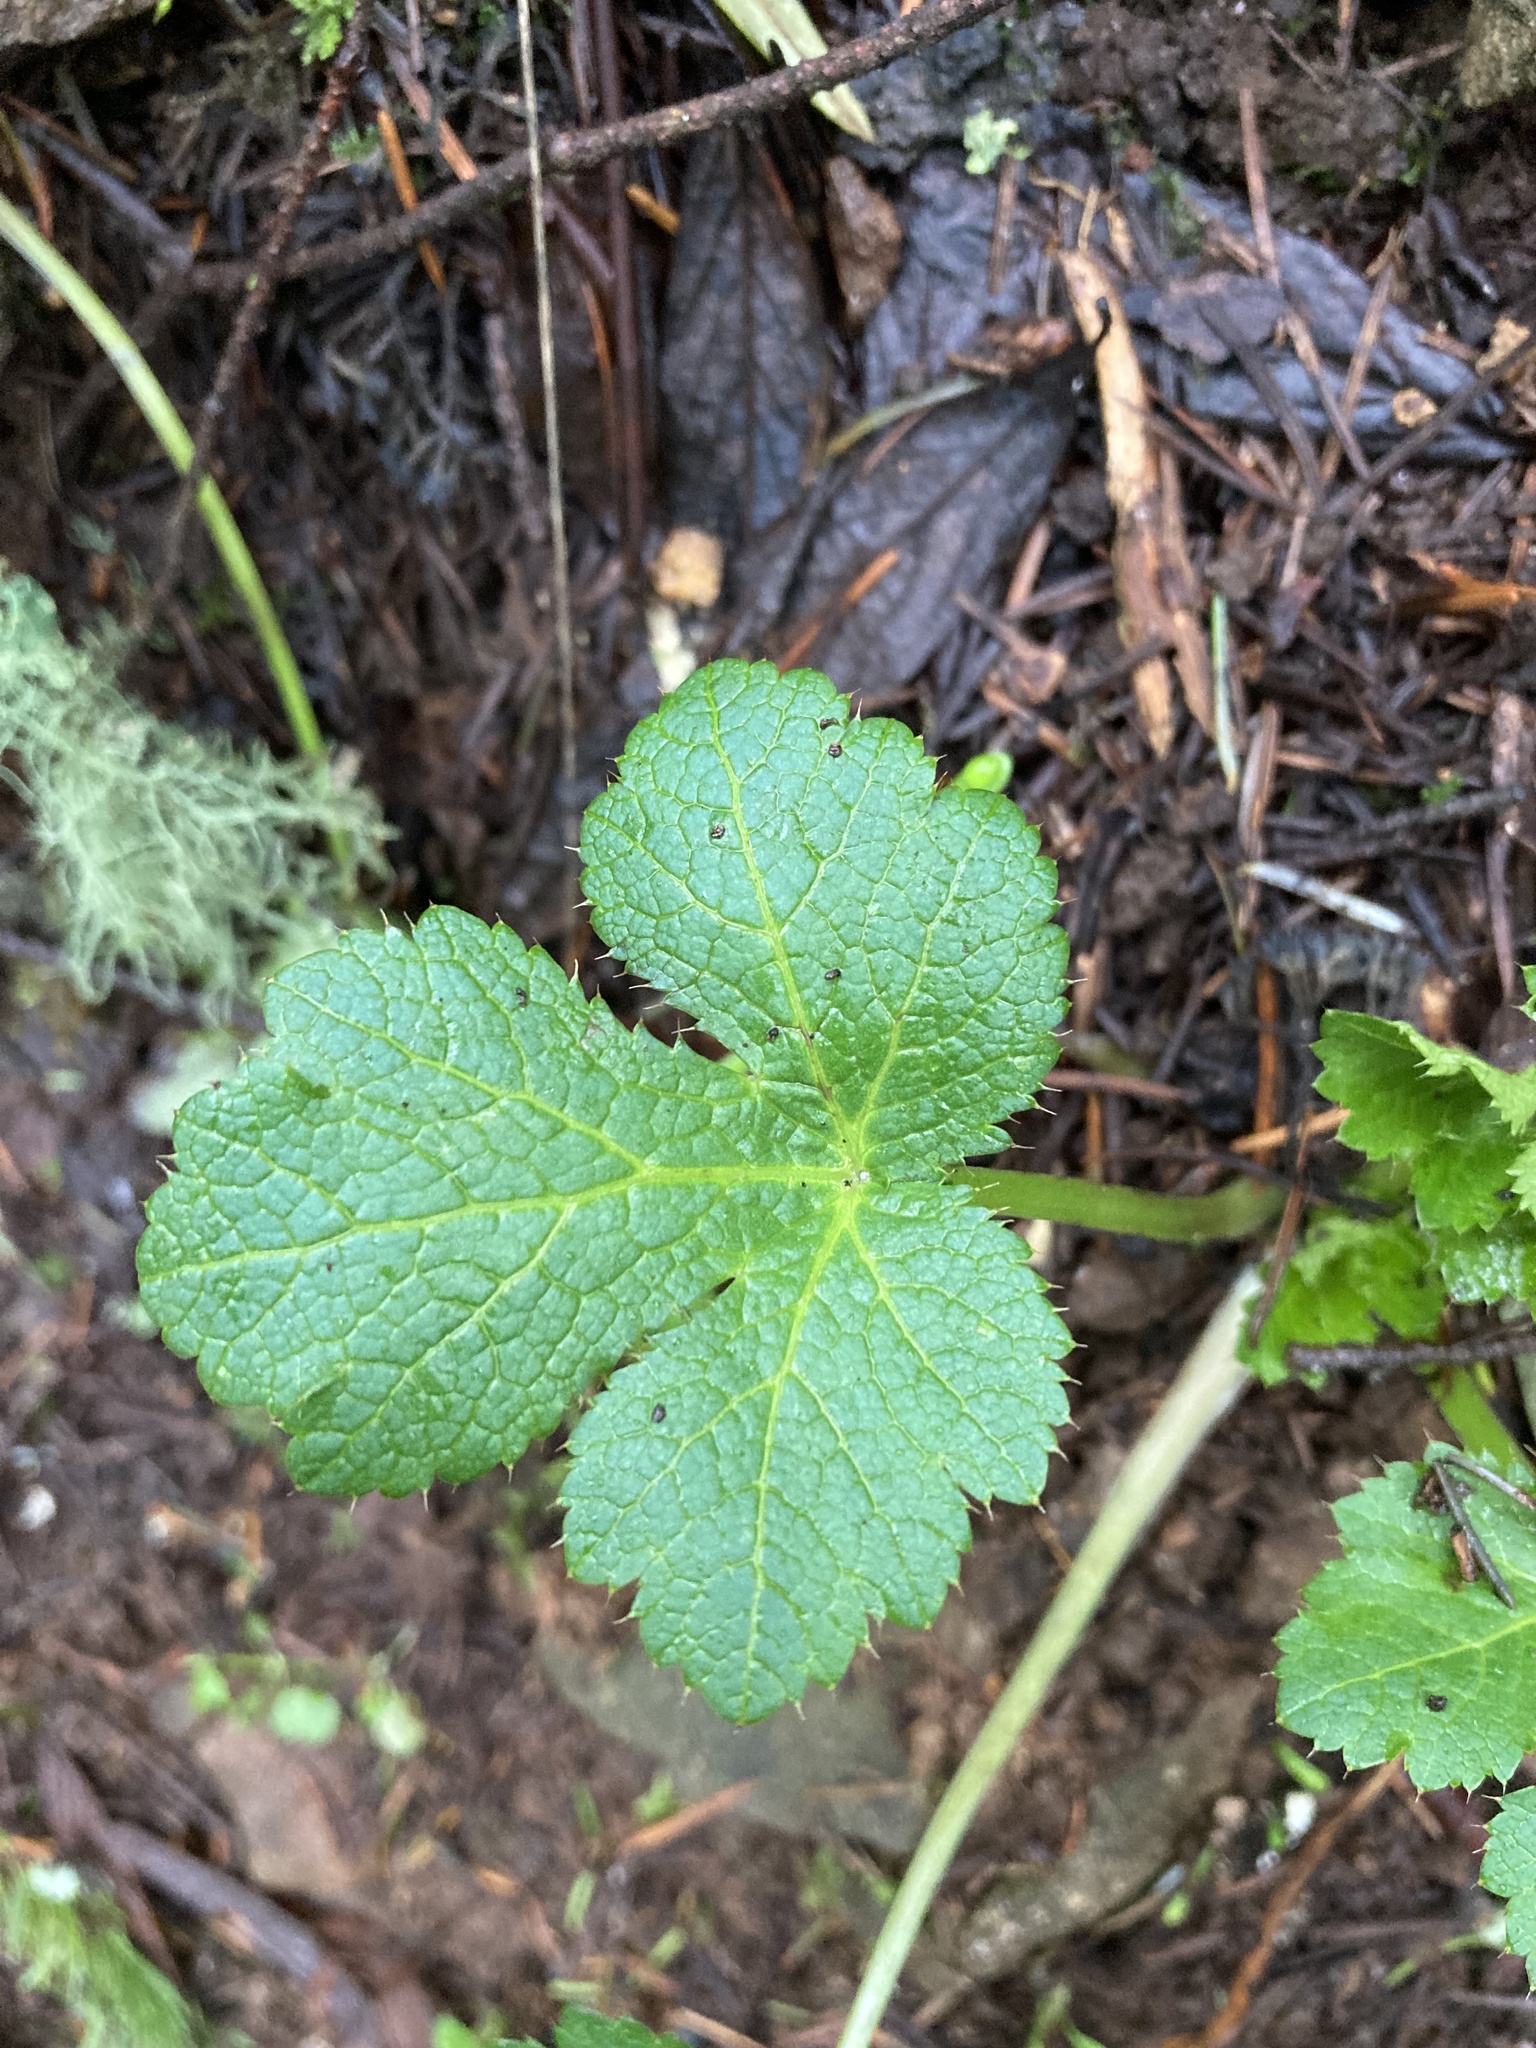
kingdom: Plantae
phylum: Tracheophyta
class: Magnoliopsida
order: Apiales
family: Apiaceae
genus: Sanicula
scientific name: Sanicula crassicaulis
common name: Western snakeroot
